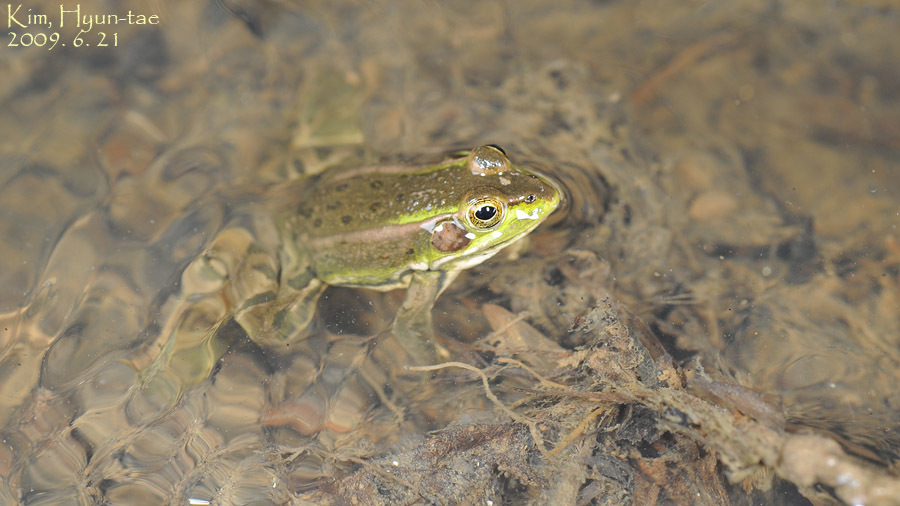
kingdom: Animalia
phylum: Chordata
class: Amphibia
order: Anura
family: Ranidae
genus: Pelophylax
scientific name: Pelophylax chosenicus
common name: Gold-spotted pond frog
